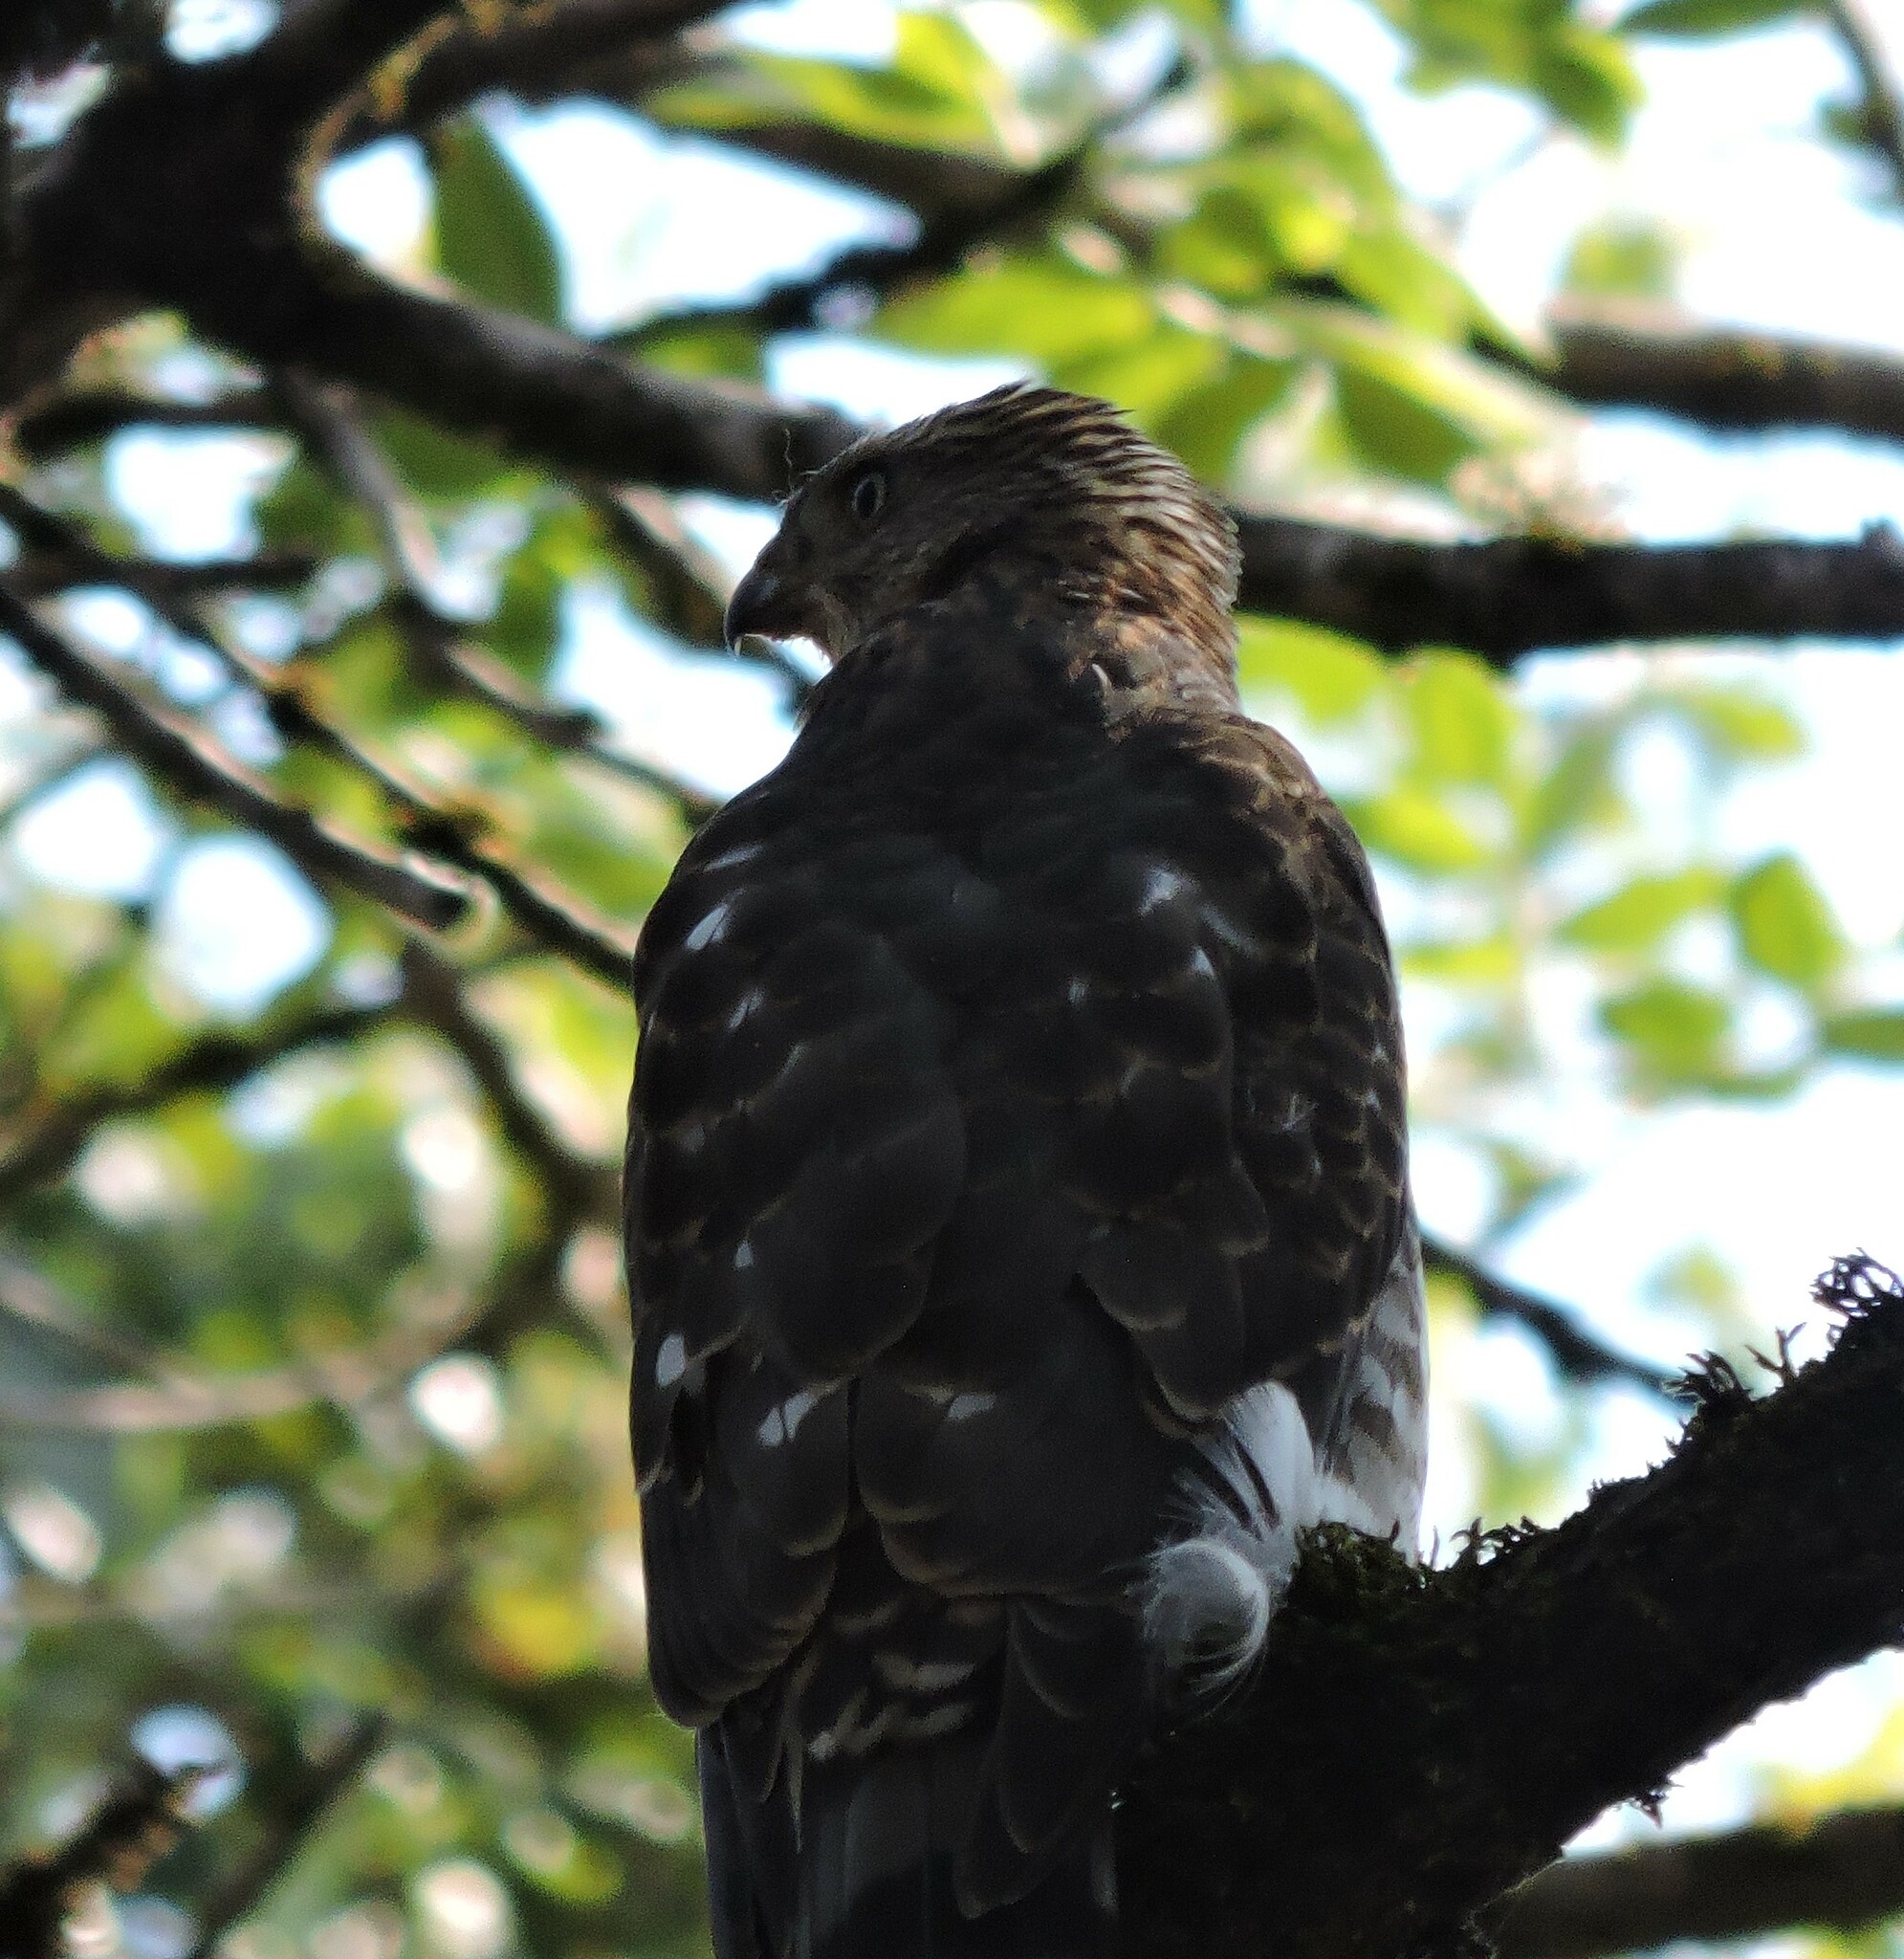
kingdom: Animalia
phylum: Chordata
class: Aves
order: Accipitriformes
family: Accipitridae
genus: Accipiter
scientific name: Accipiter cooperii
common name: Cooper's hawk
